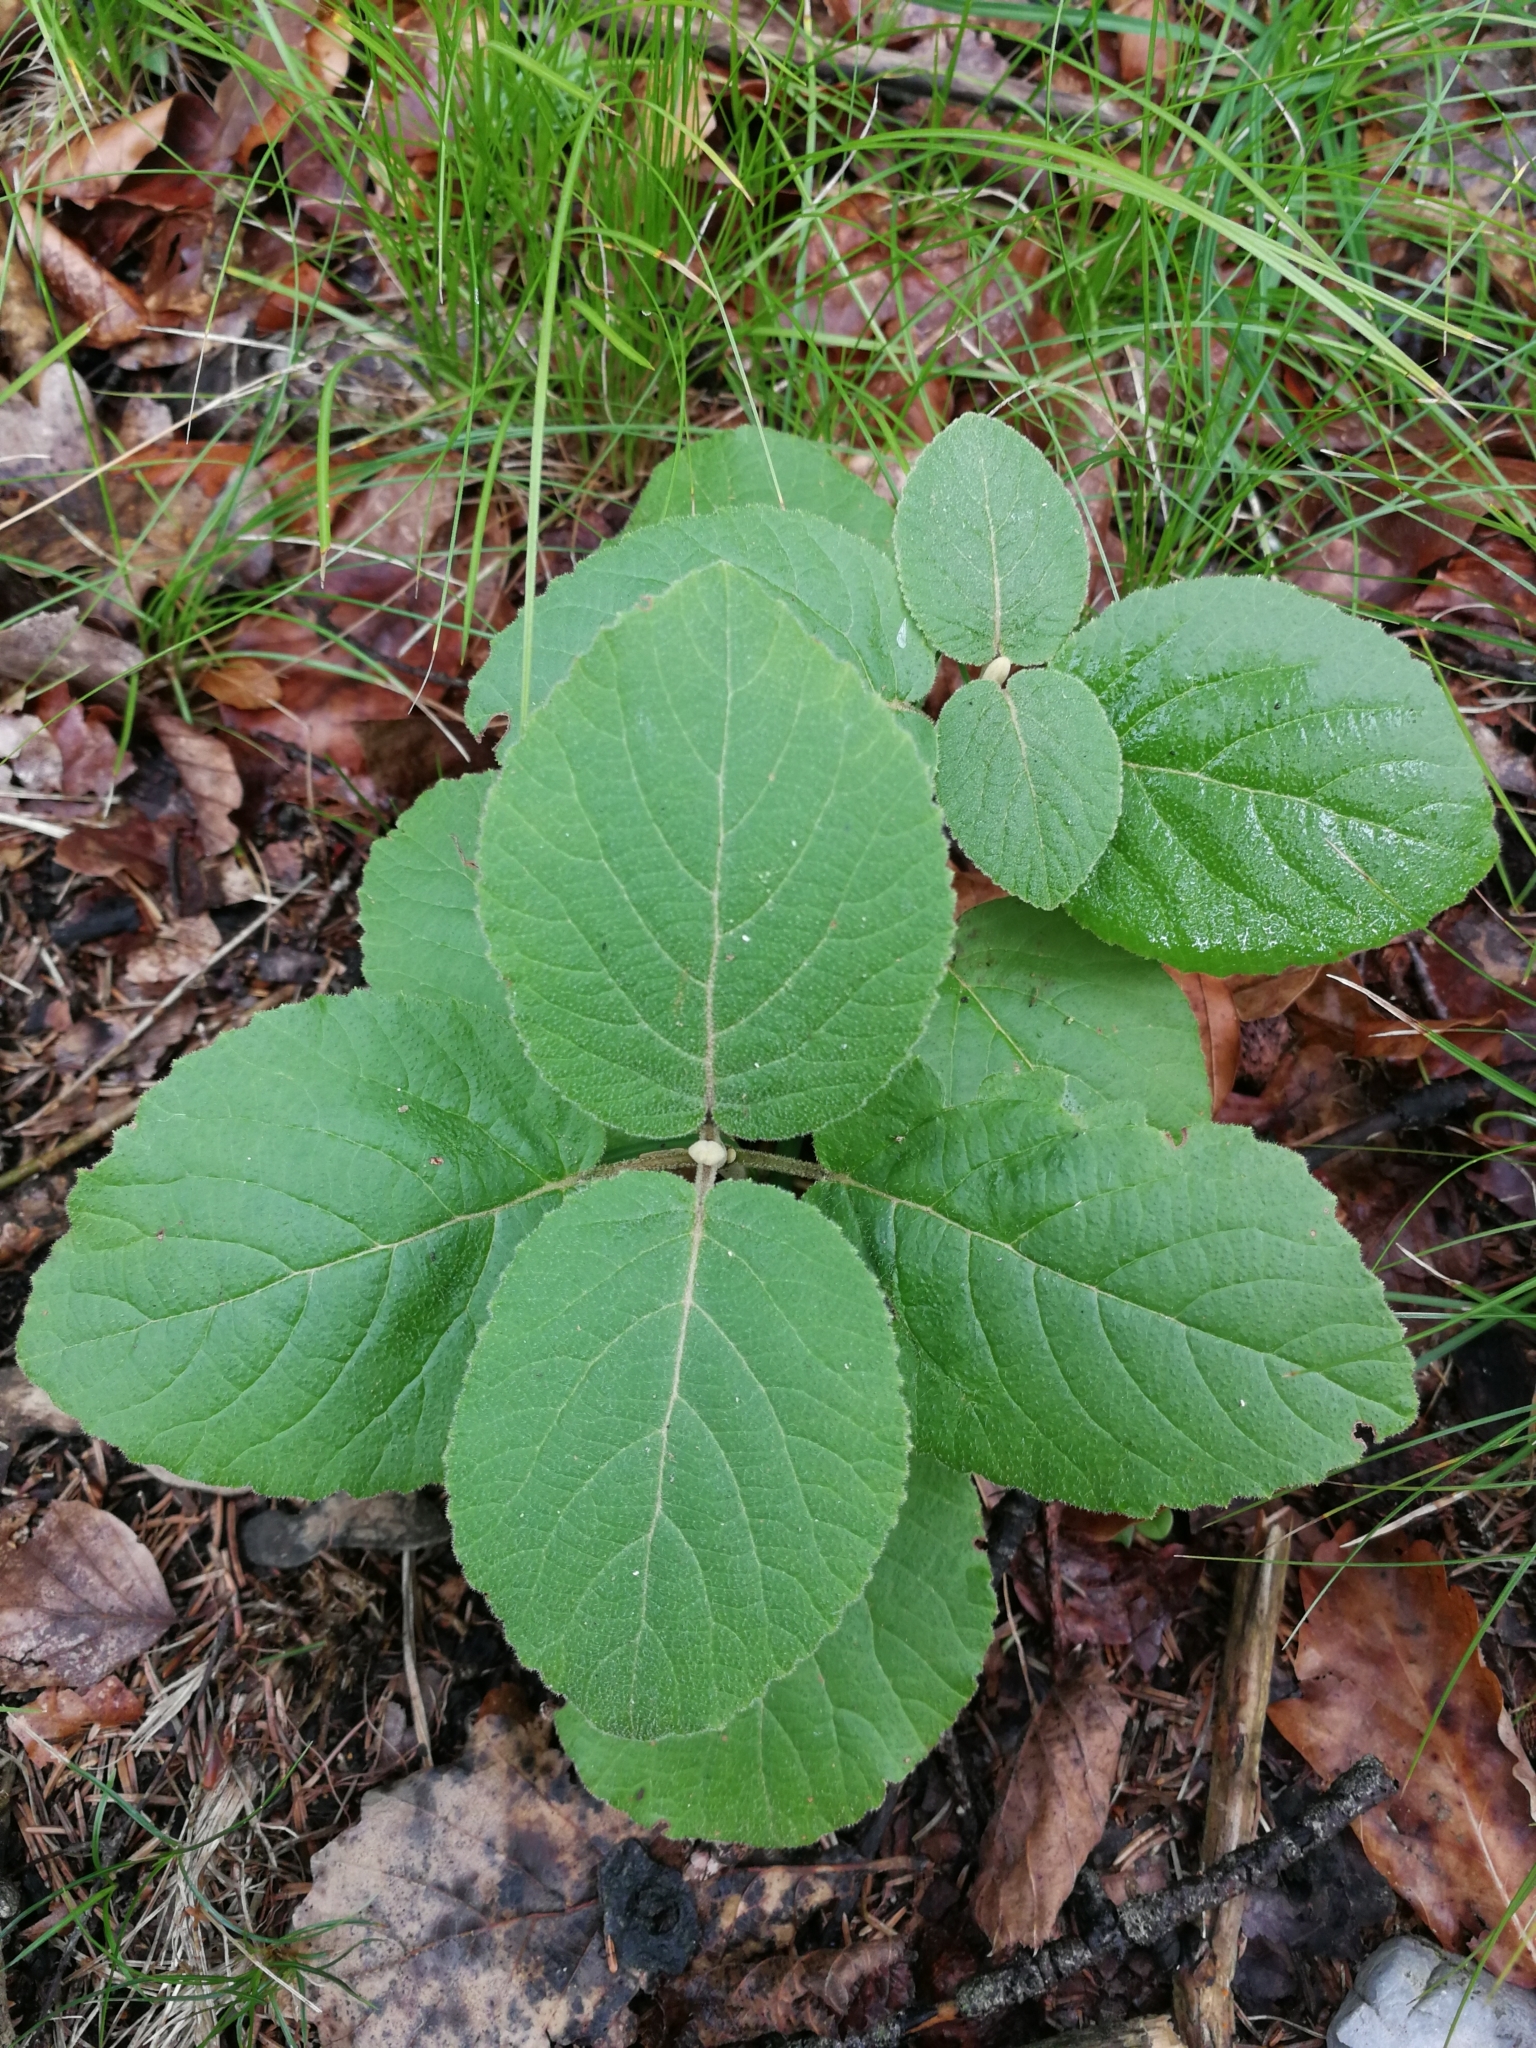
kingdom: Plantae
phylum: Tracheophyta
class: Magnoliopsida
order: Dipsacales
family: Viburnaceae
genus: Viburnum
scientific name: Viburnum lantana
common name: Wayfaring tree
